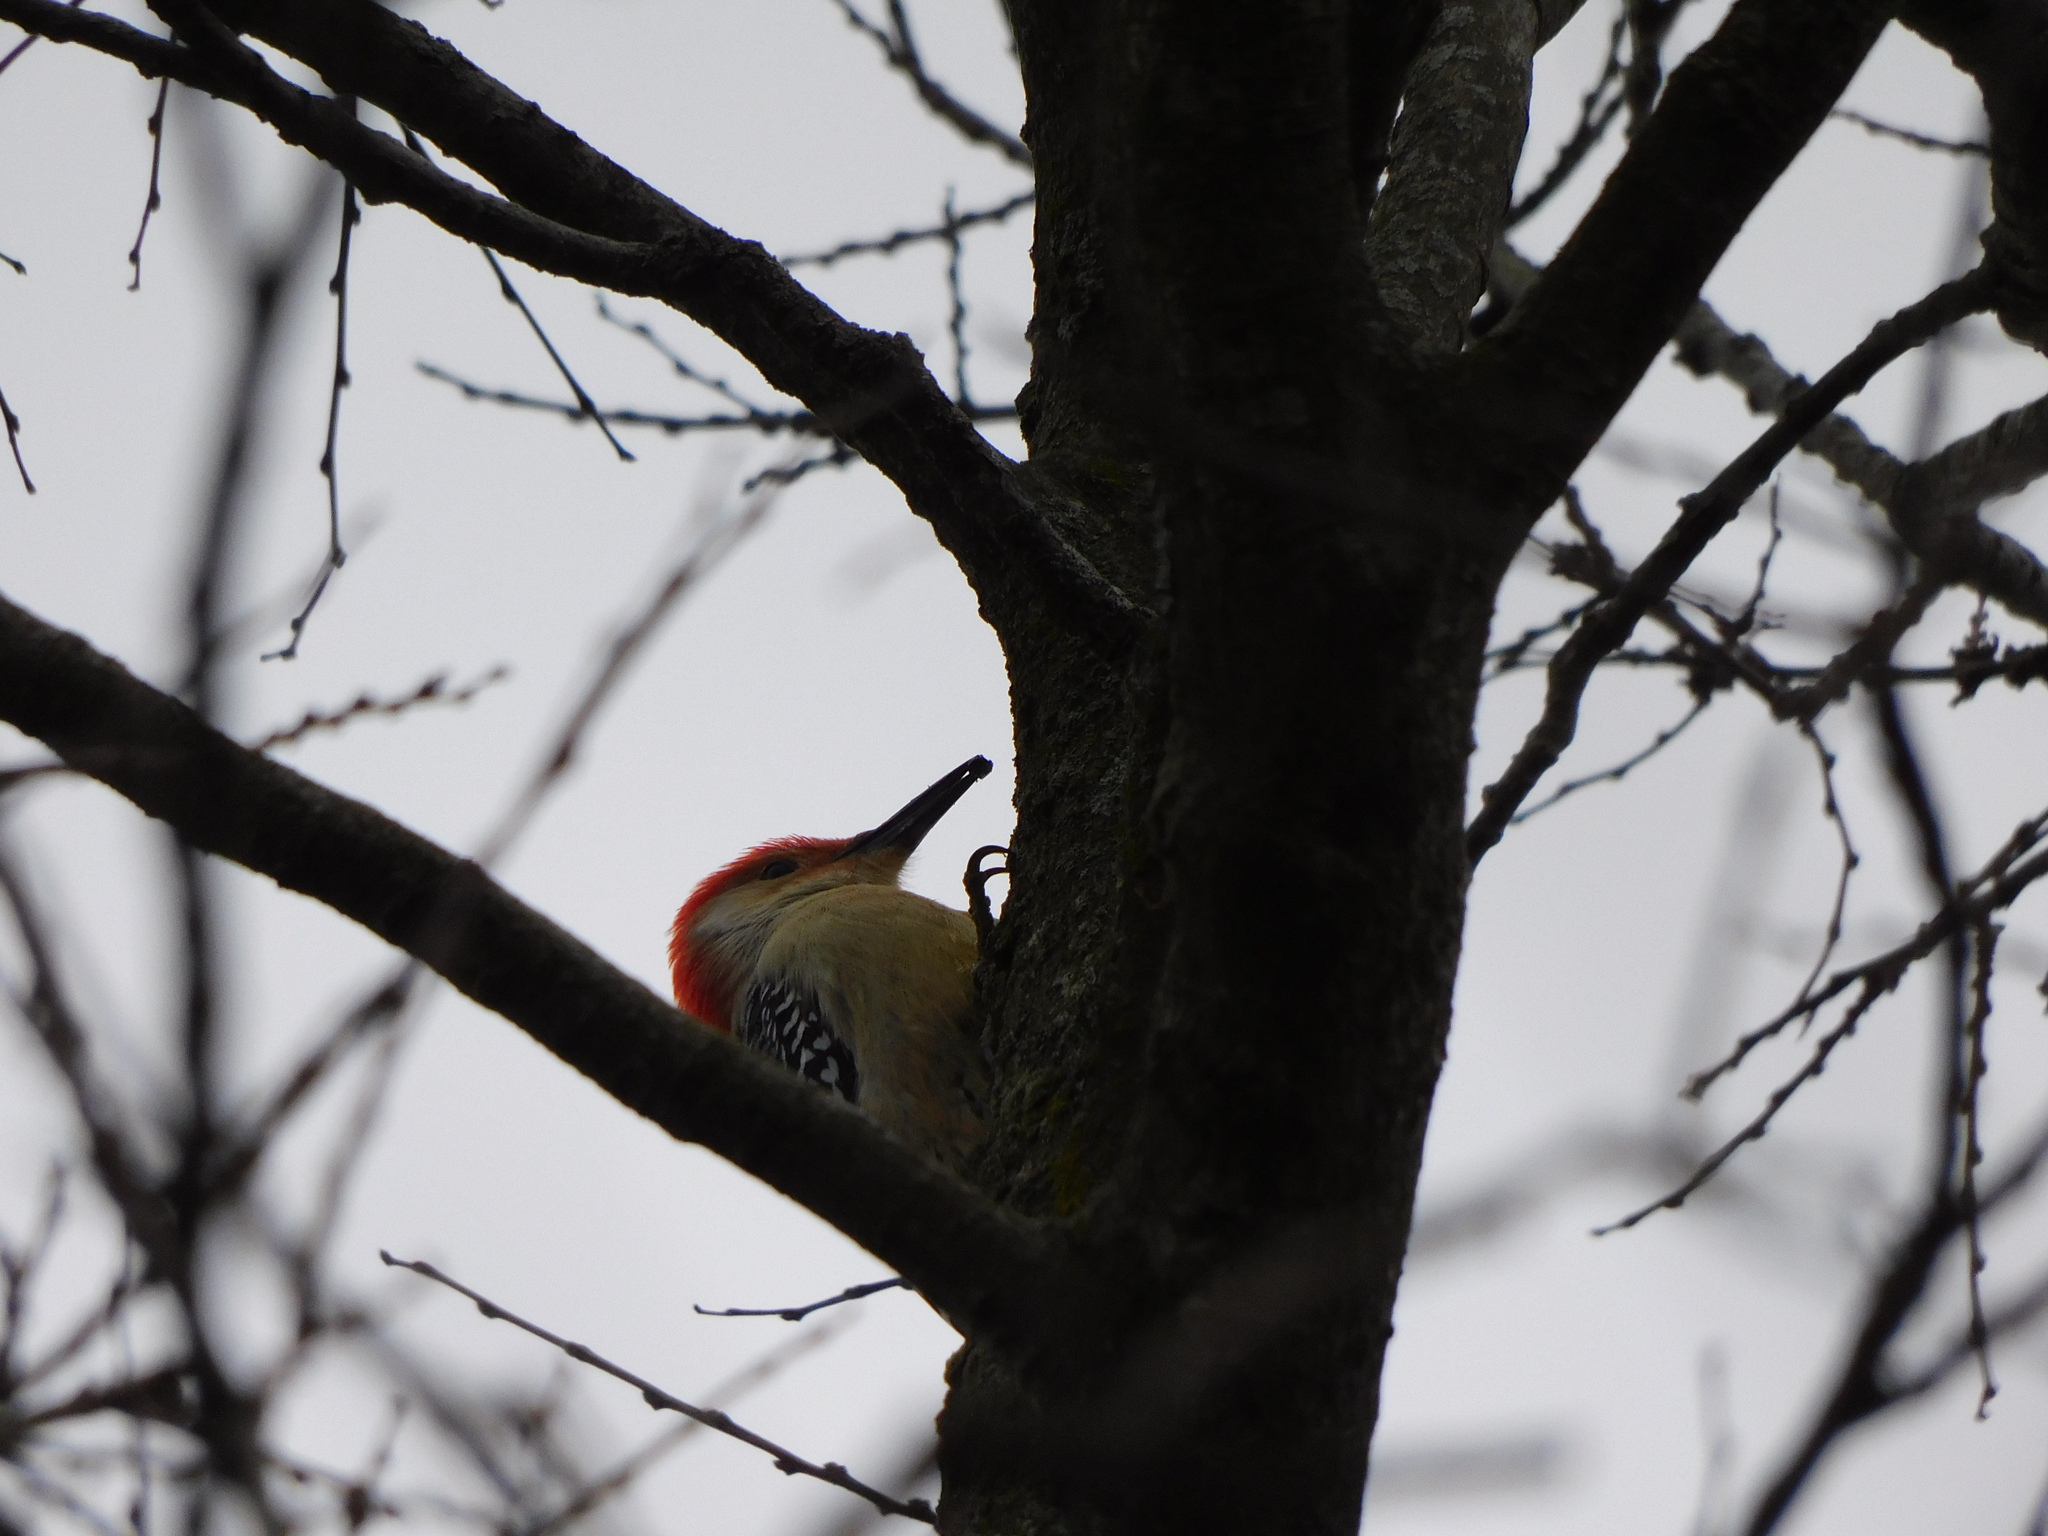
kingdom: Animalia
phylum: Chordata
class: Aves
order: Piciformes
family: Picidae
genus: Melanerpes
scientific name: Melanerpes carolinus
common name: Red-bellied woodpecker
